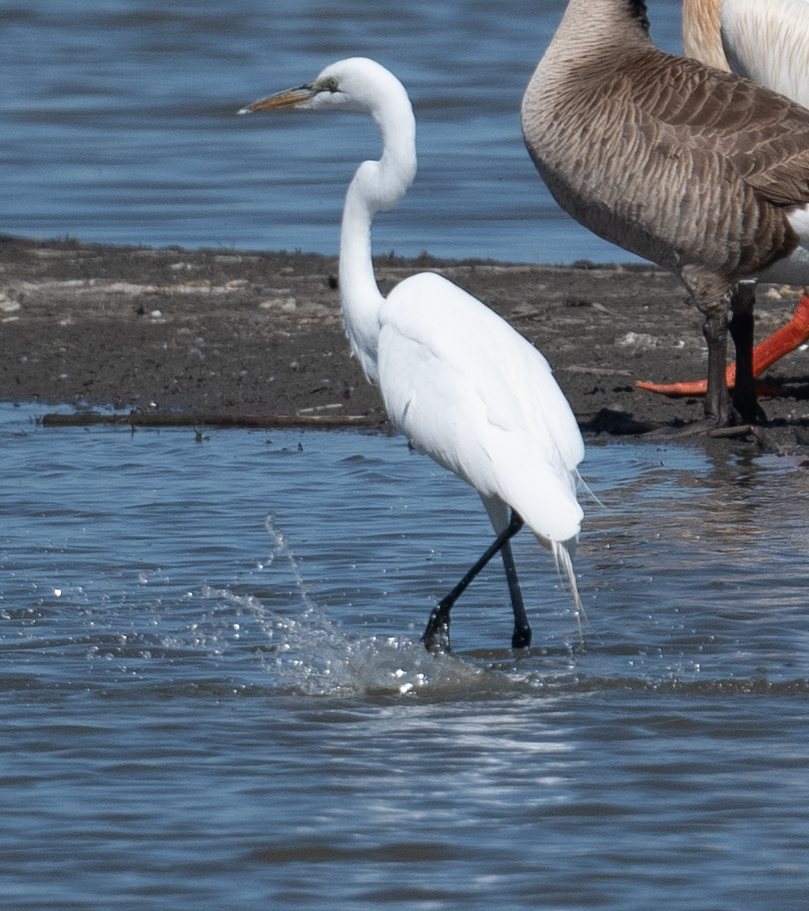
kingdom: Animalia
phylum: Chordata
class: Aves
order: Pelecaniformes
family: Ardeidae
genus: Ardea
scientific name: Ardea alba
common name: Great egret
